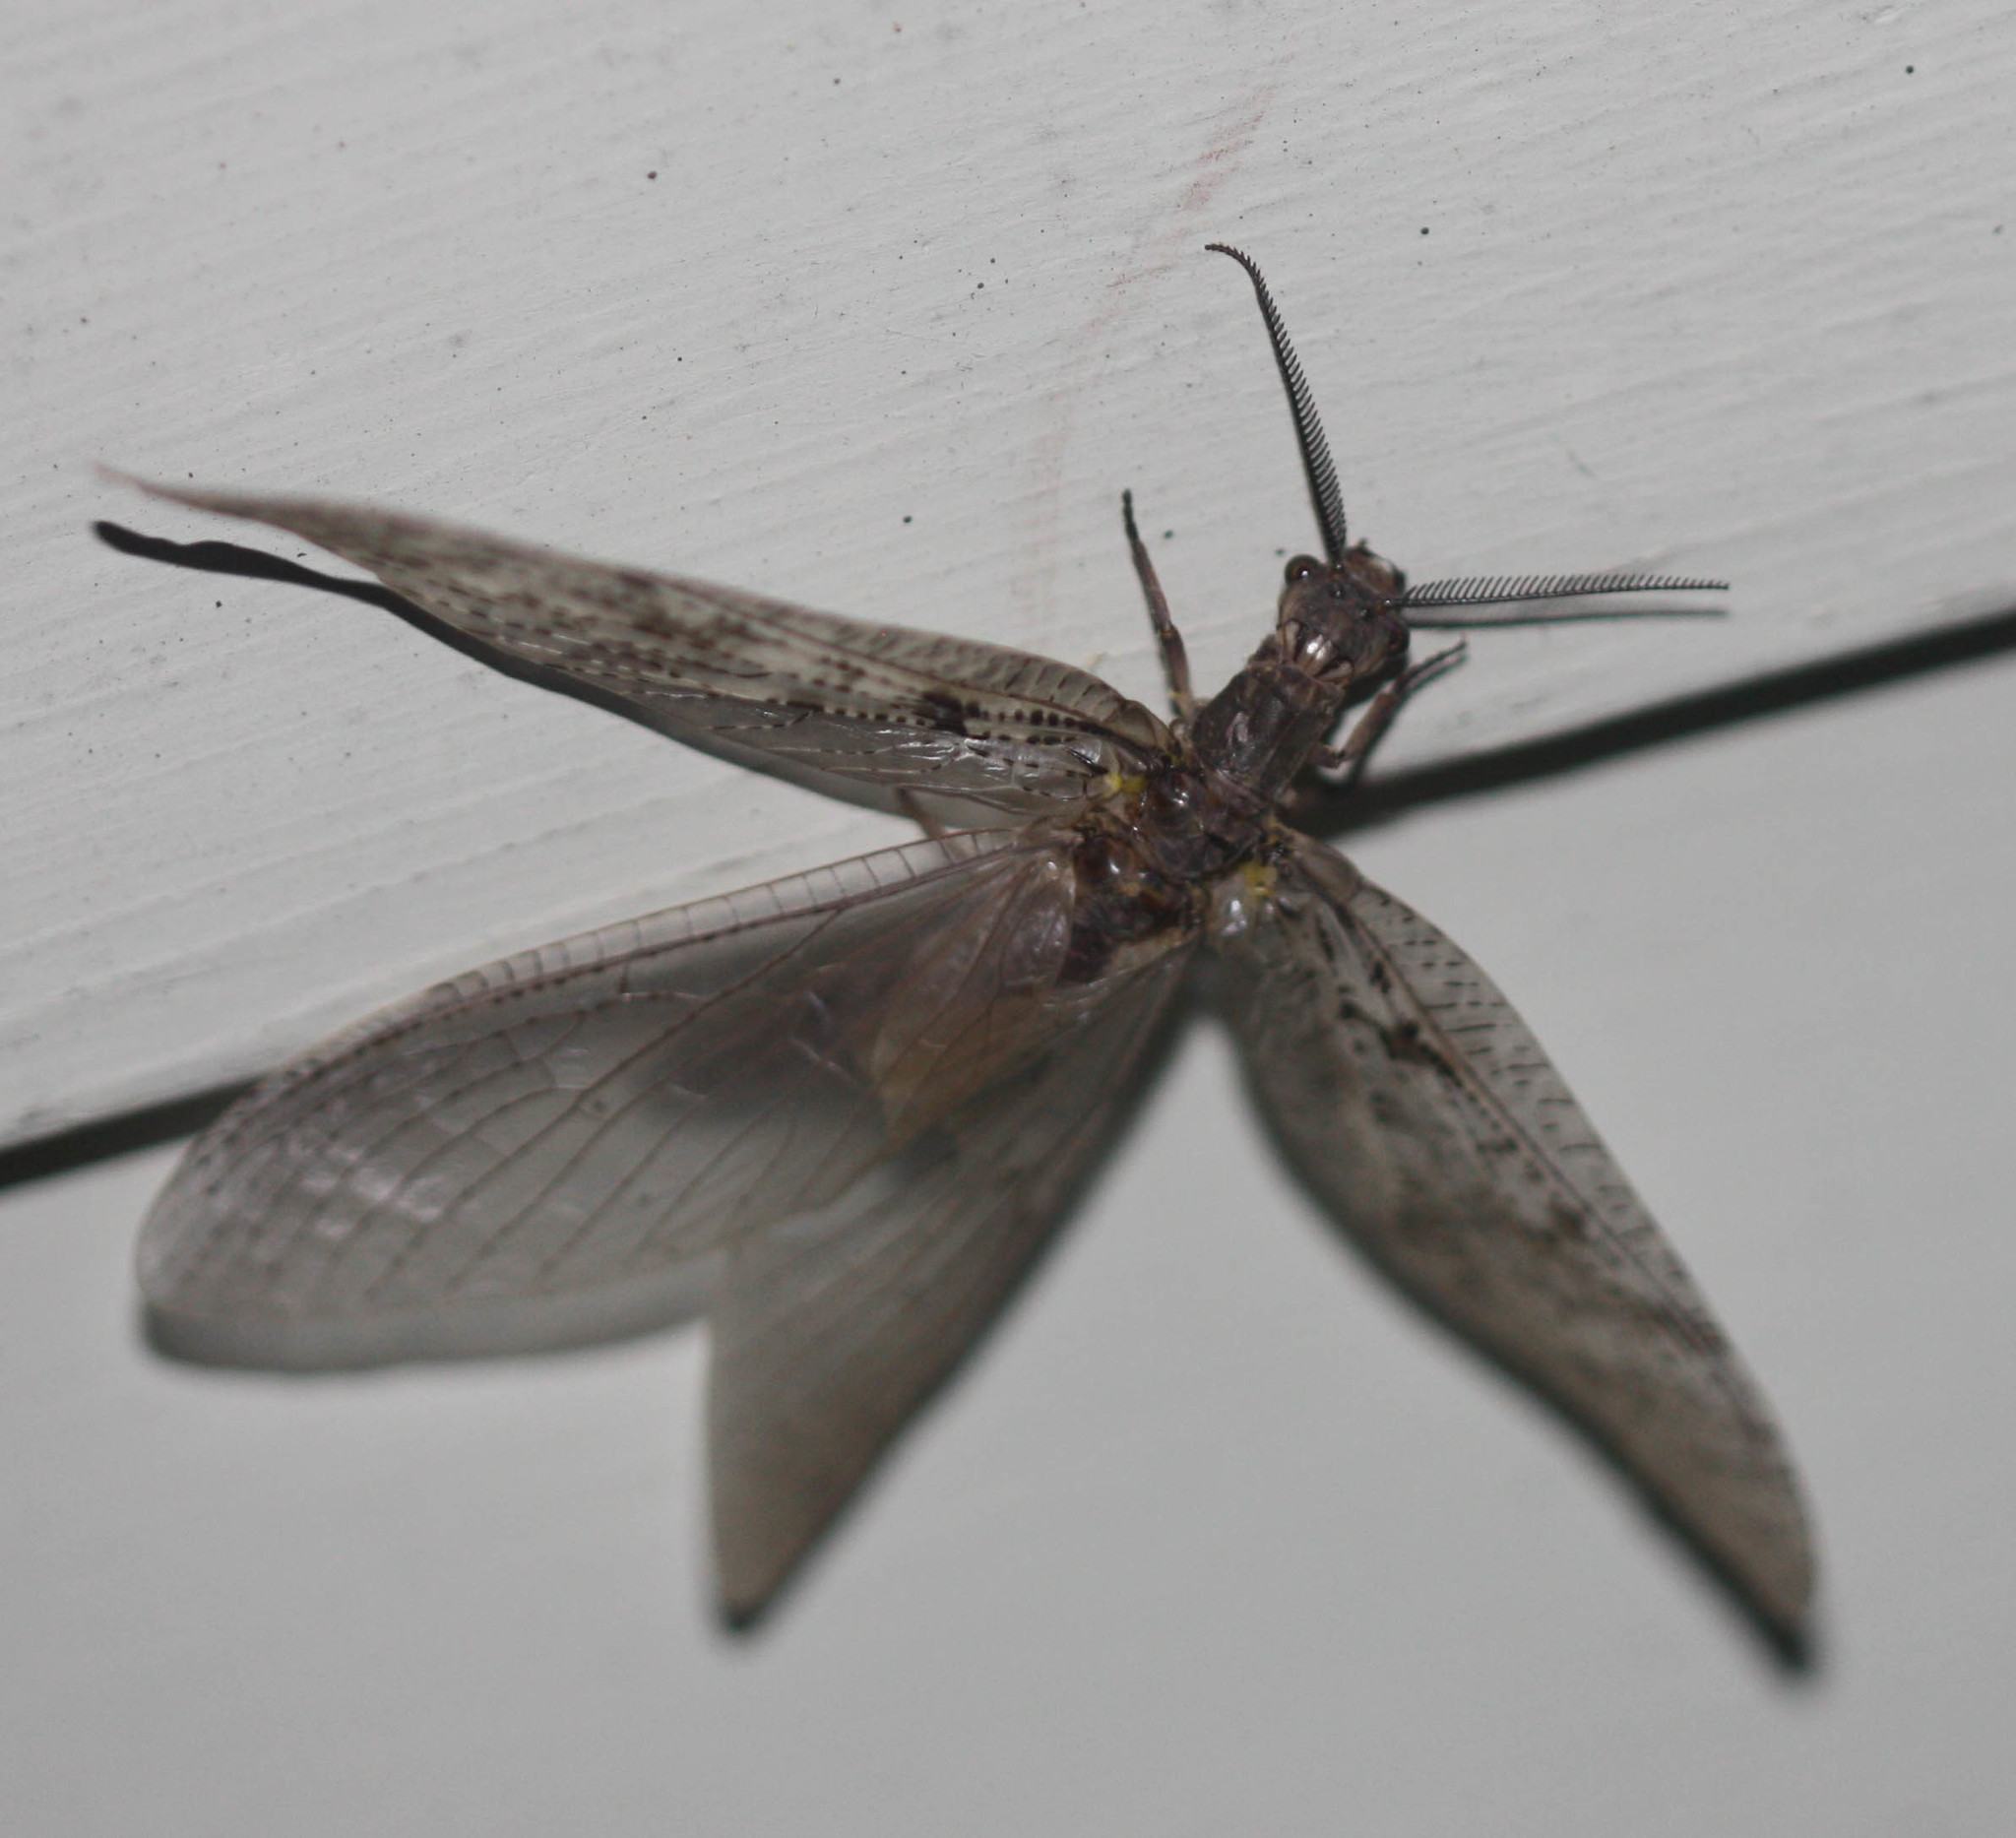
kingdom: Animalia
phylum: Arthropoda
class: Insecta
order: Megaloptera
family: Corydalidae
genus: Chauliodes
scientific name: Chauliodes pectinicornis
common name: Summer fishfly
